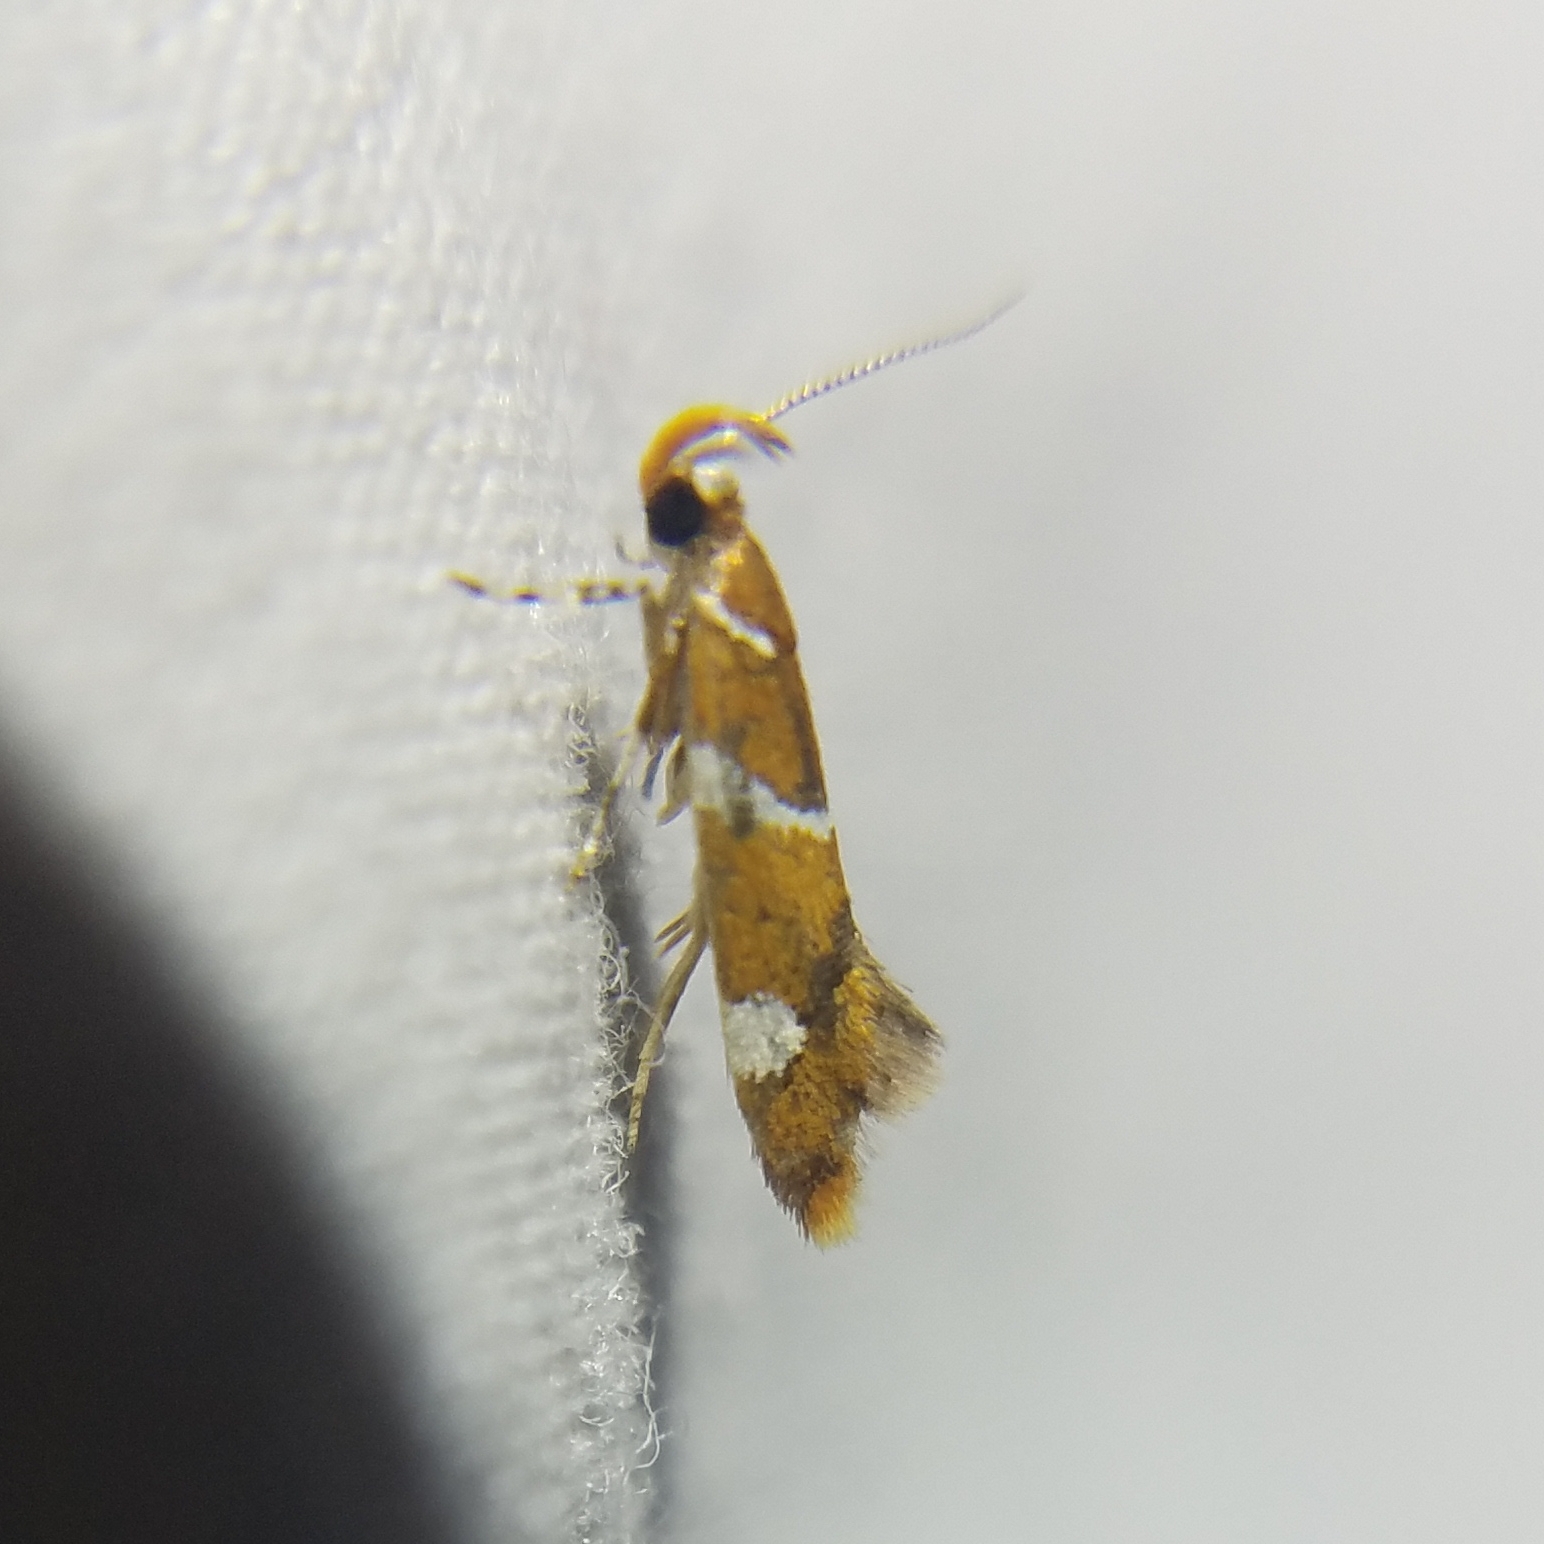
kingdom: Animalia
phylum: Arthropoda
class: Insecta
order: Lepidoptera
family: Oecophoridae
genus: Promalactis
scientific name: Promalactis suzukiella
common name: Moth
